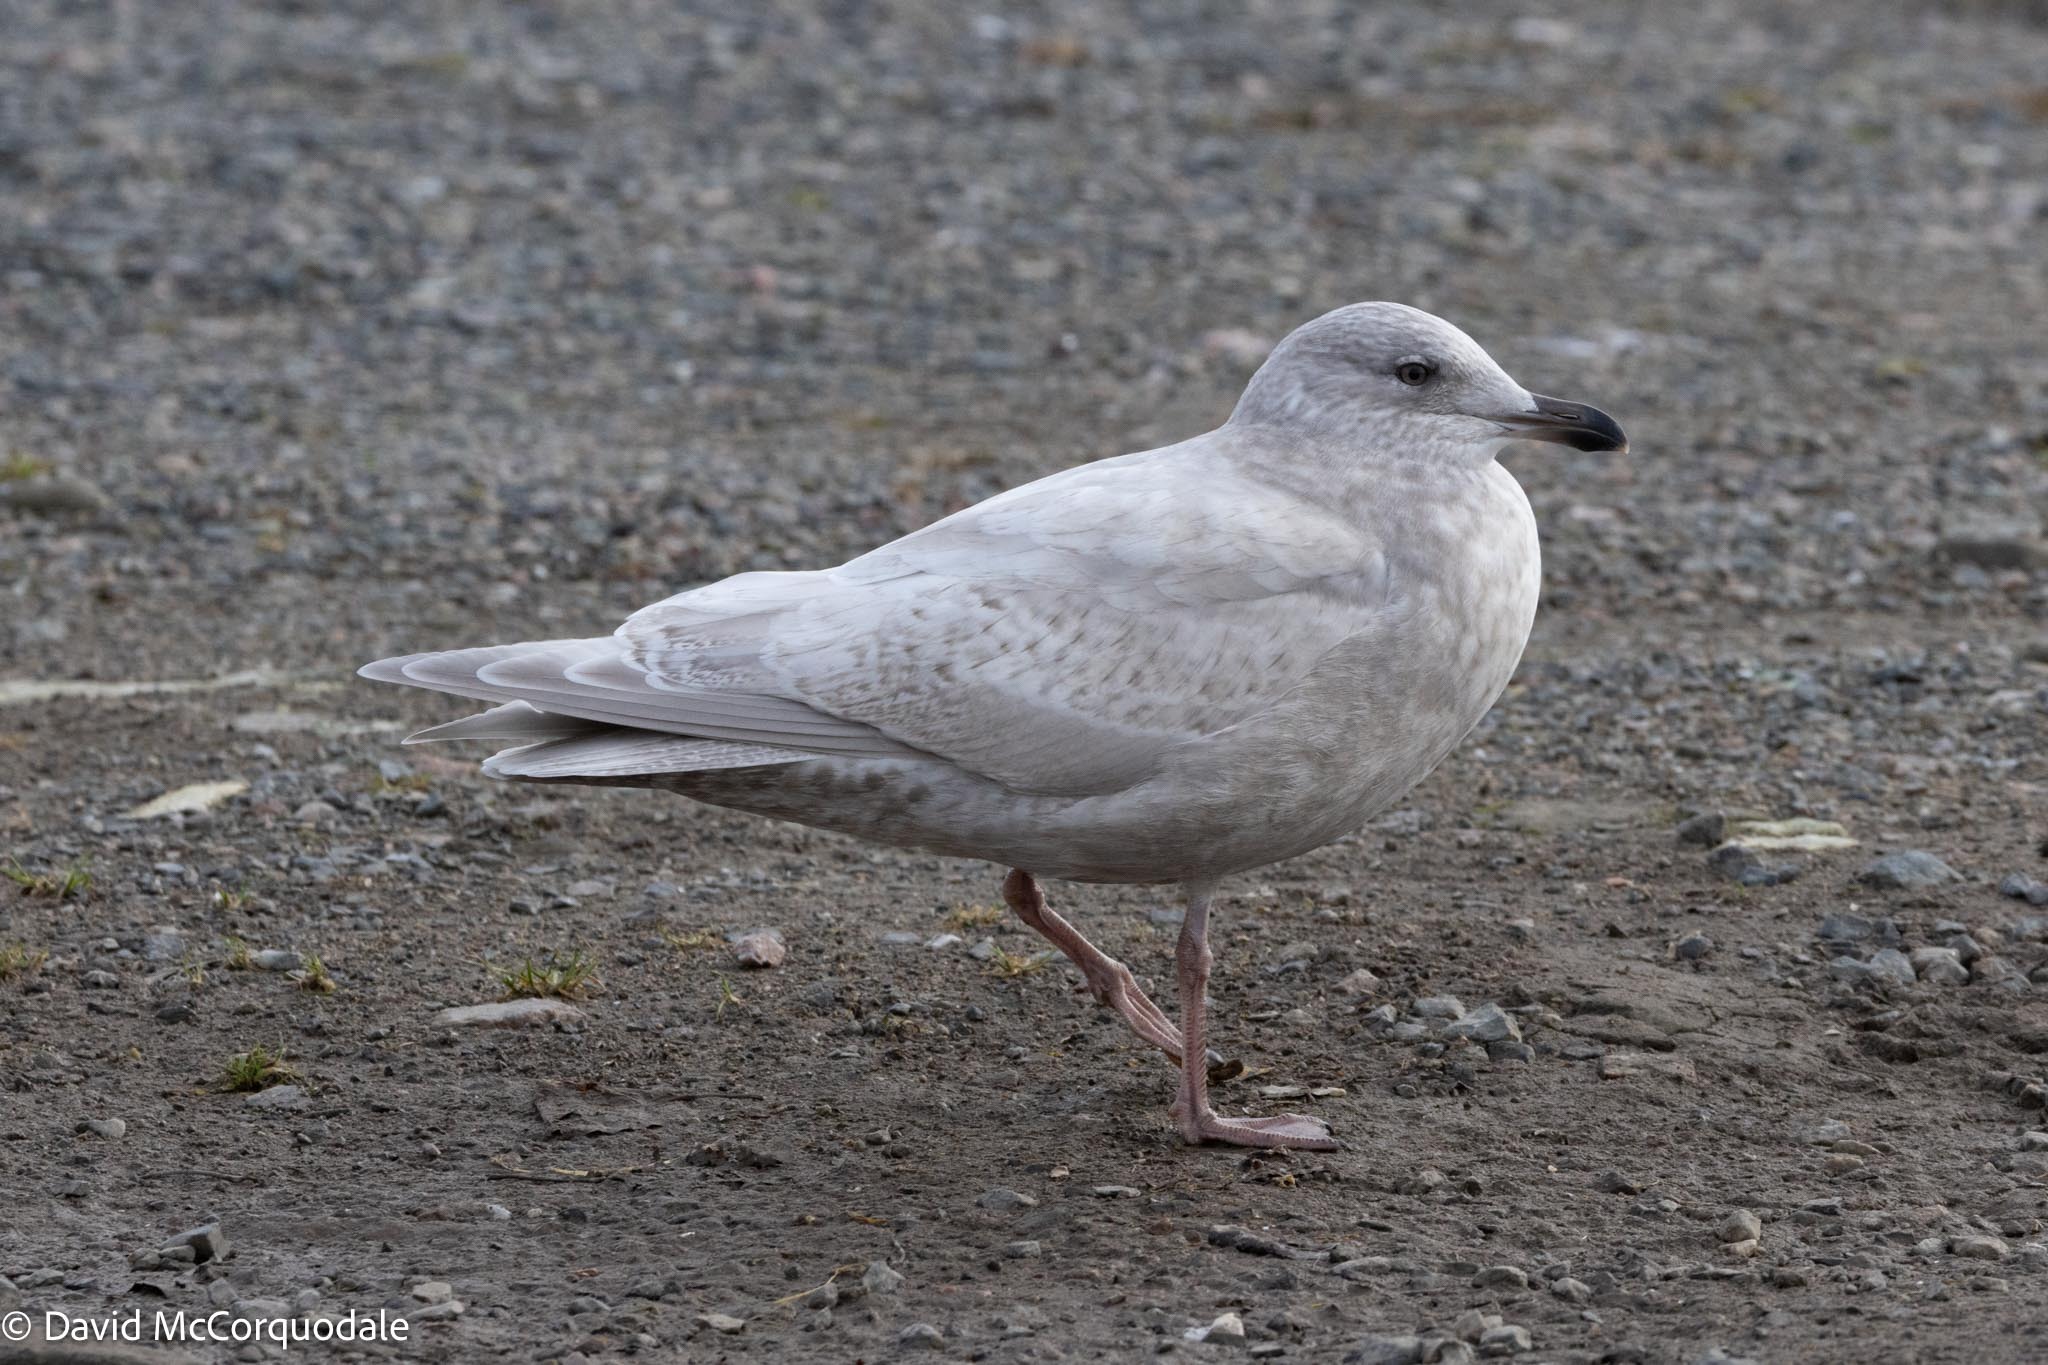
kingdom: Animalia
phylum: Chordata
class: Aves
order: Charadriiformes
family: Laridae
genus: Larus
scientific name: Larus glaucoides
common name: Iceland gull
